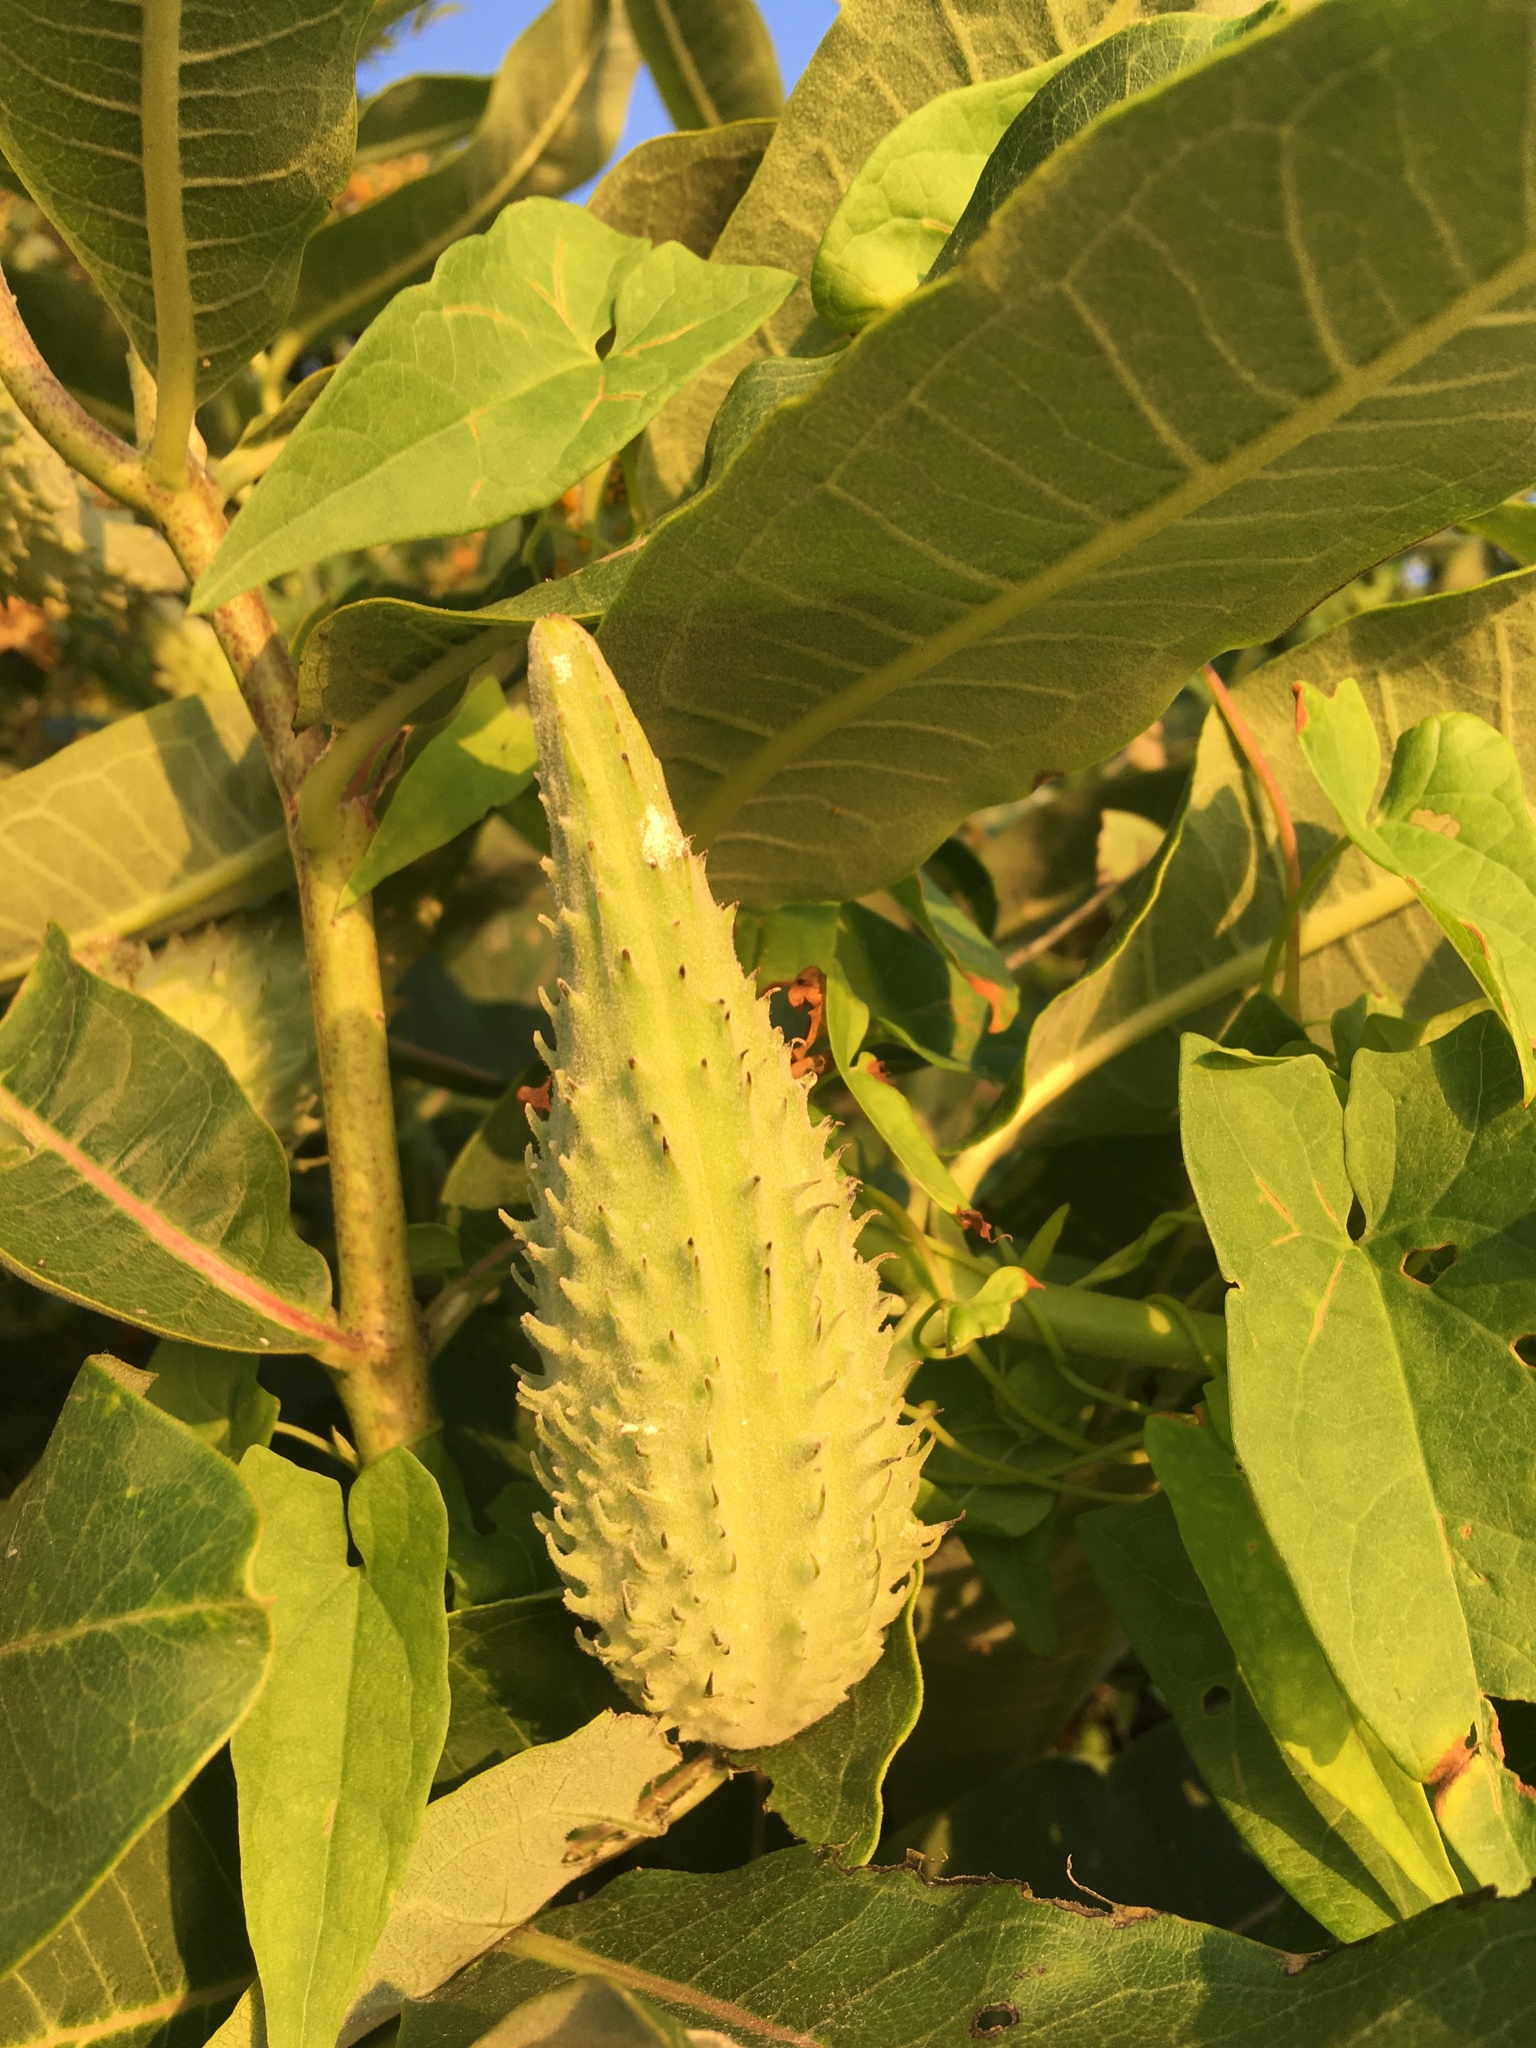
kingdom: Plantae
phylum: Tracheophyta
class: Magnoliopsida
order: Gentianales
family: Apocynaceae
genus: Asclepias
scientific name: Asclepias syriaca
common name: Common milkweed
